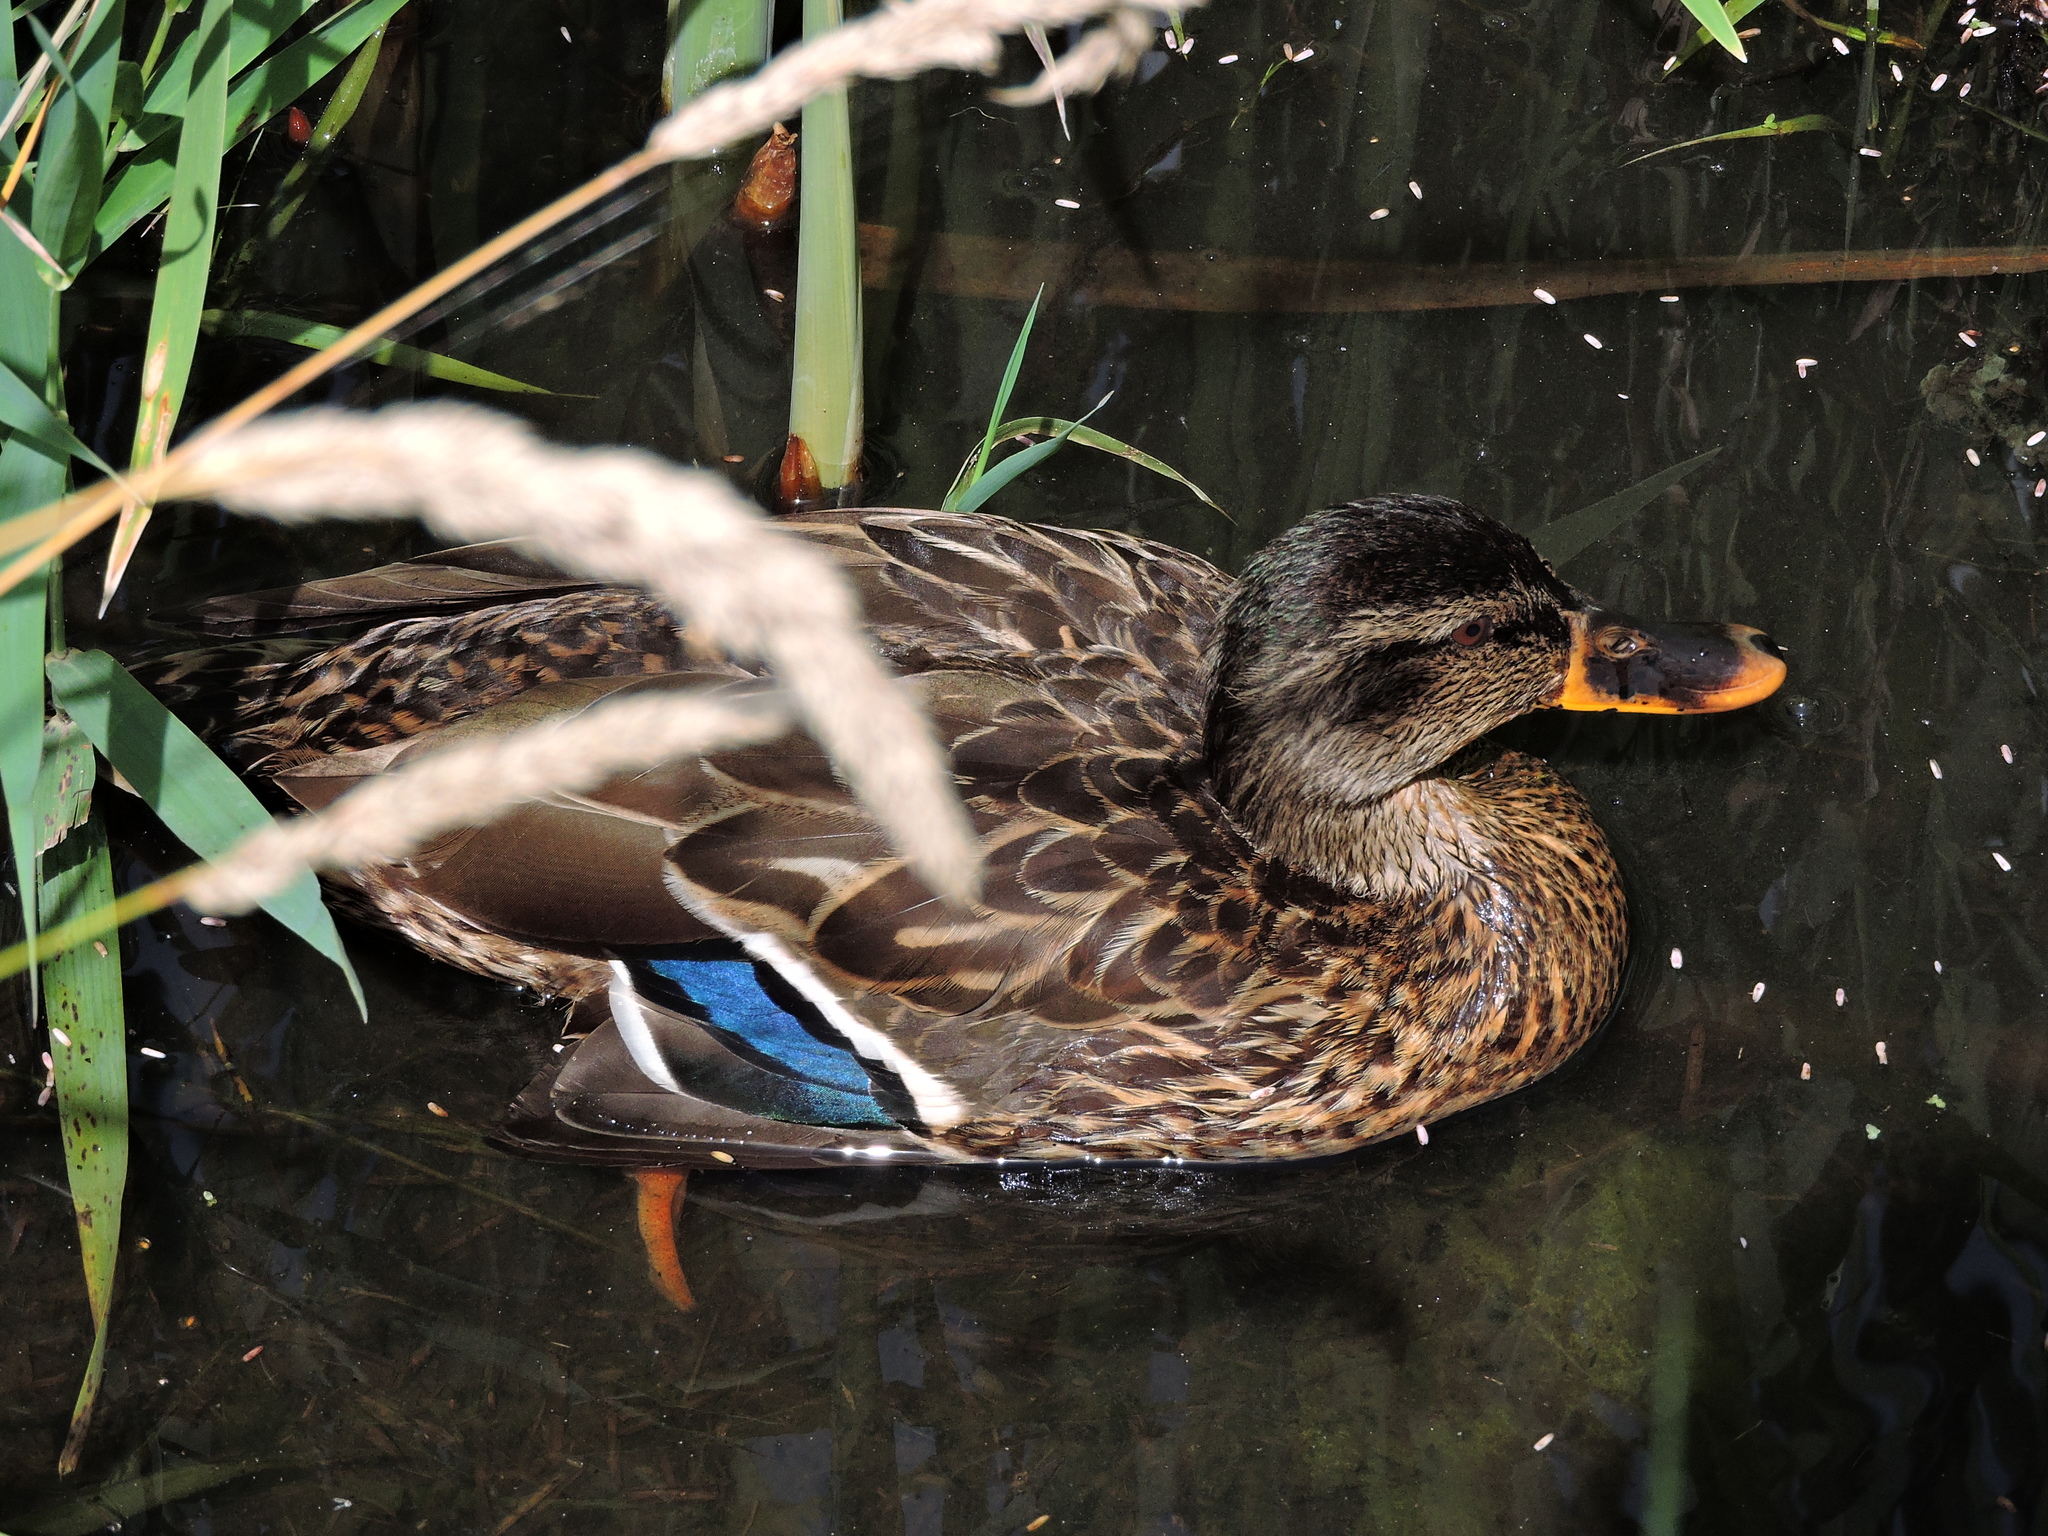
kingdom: Animalia
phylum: Chordata
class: Aves
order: Anseriformes
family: Anatidae
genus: Anas
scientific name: Anas platyrhynchos
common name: Mallard
